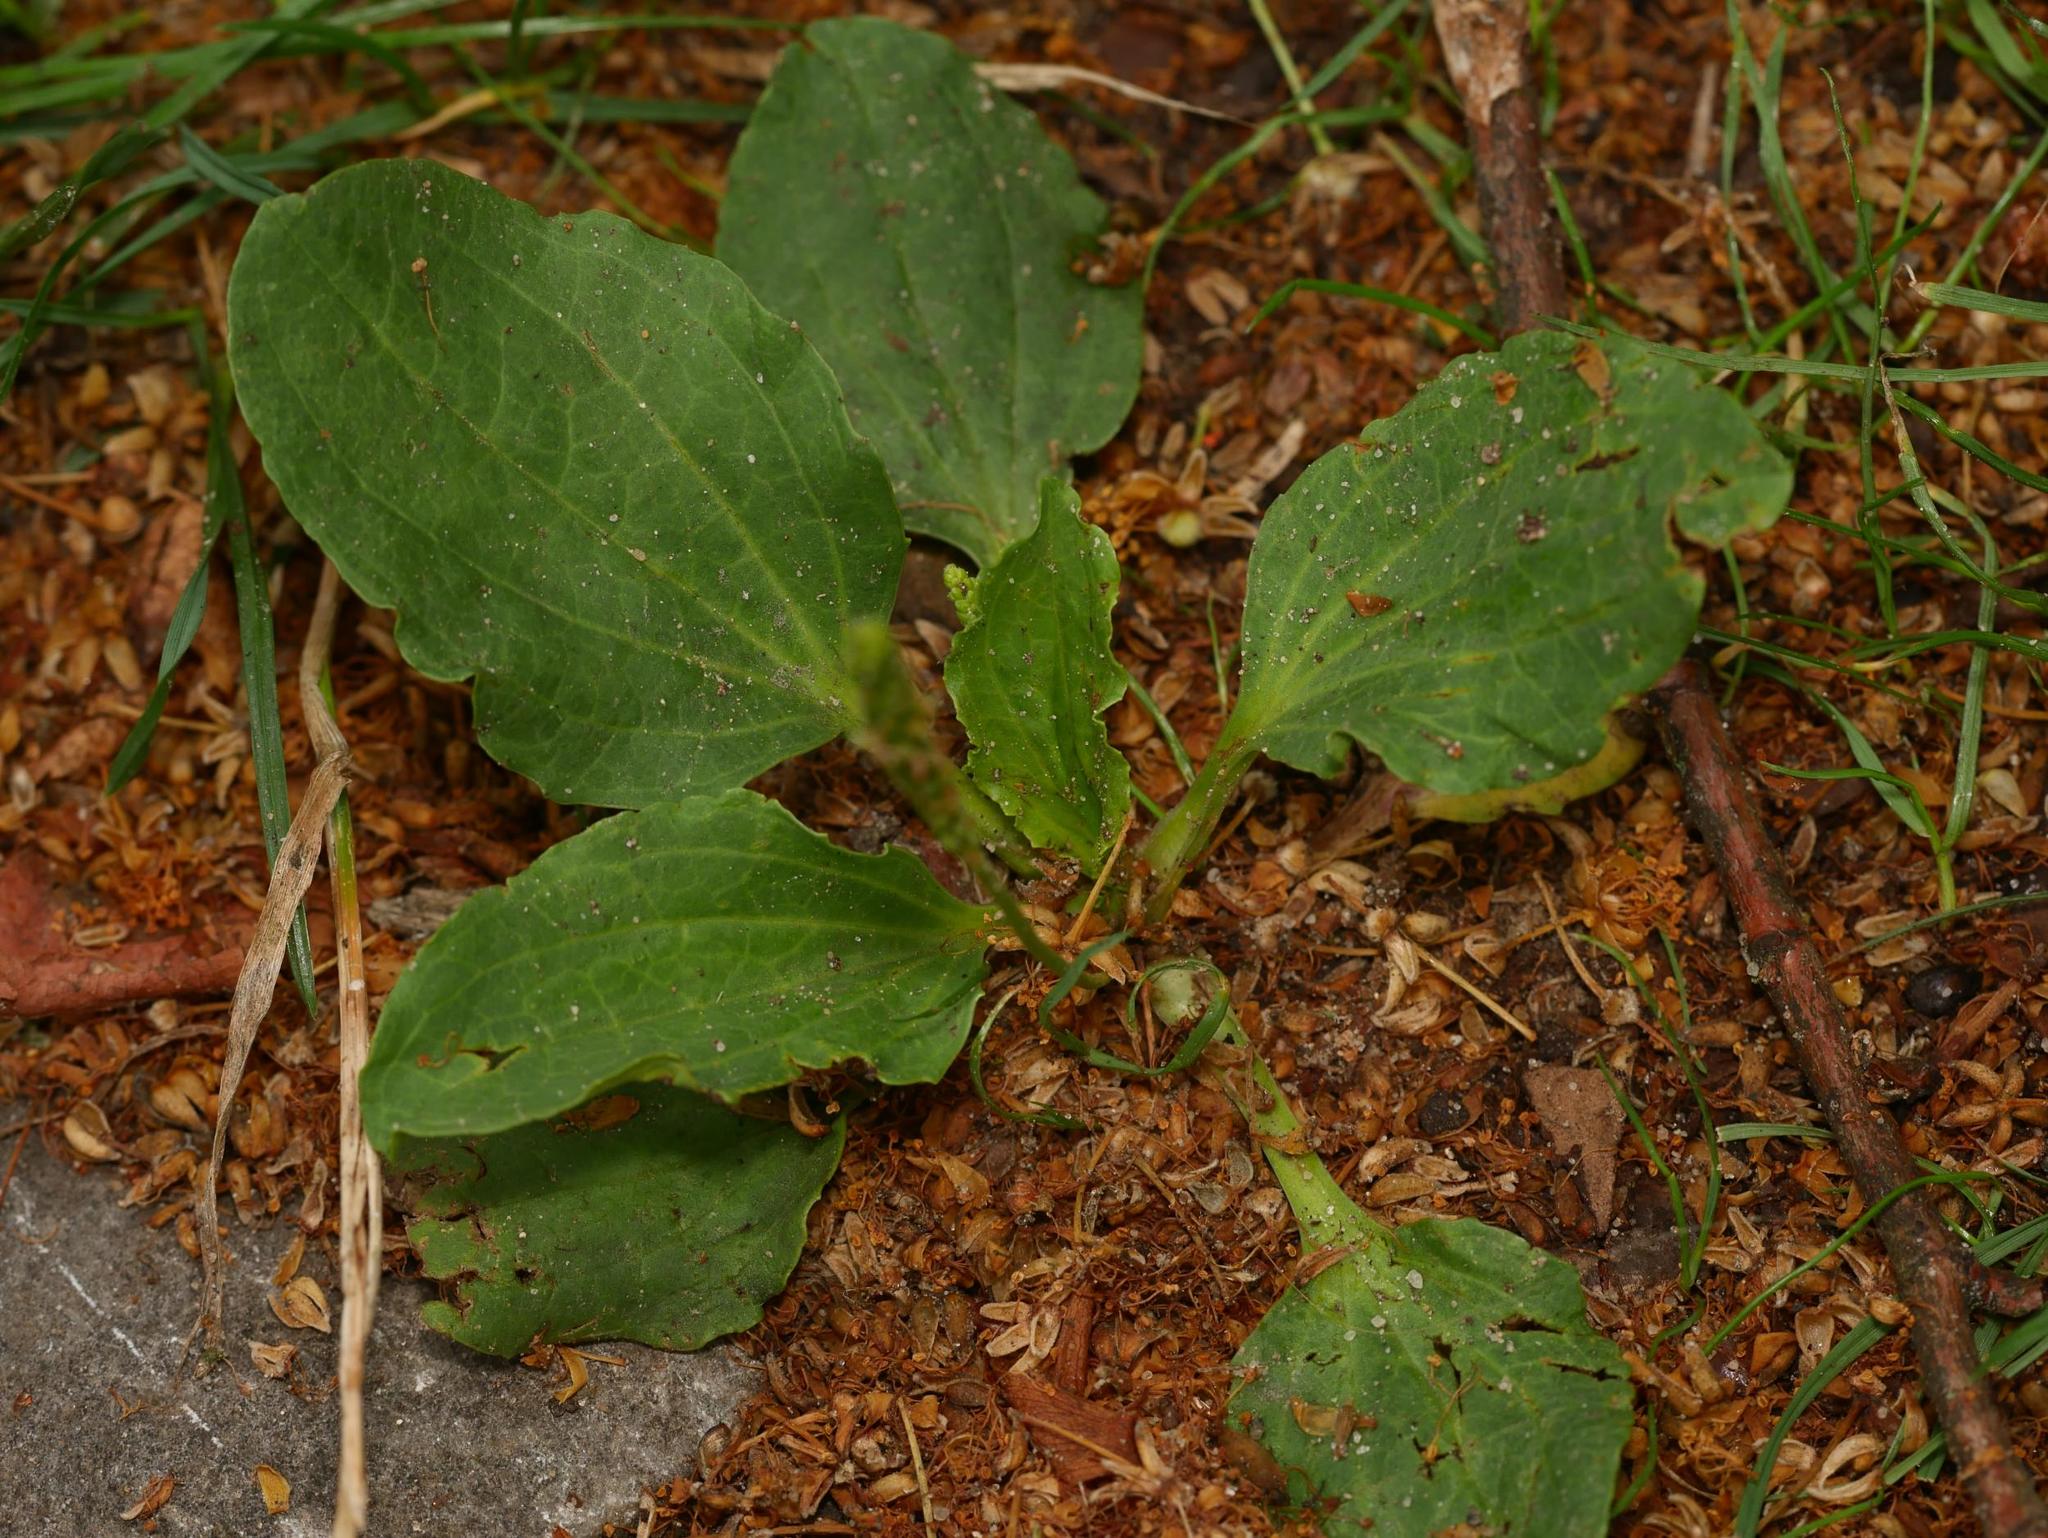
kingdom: Plantae
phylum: Tracheophyta
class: Magnoliopsida
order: Lamiales
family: Plantaginaceae
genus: Plantago
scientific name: Plantago major
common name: Common plantain
